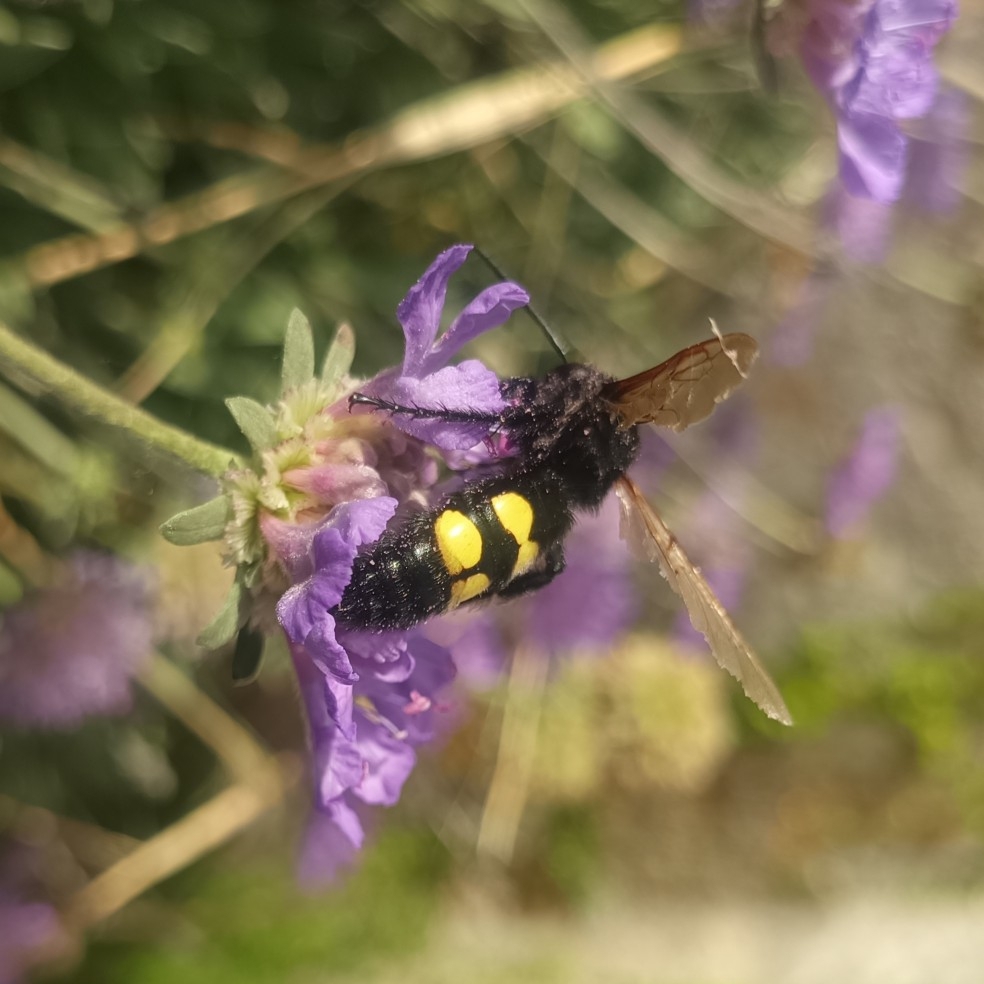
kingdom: Animalia
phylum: Arthropoda
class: Insecta
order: Hymenoptera
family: Scoliidae
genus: Megascolia
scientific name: Megascolia maculata
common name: Mammoth wasp
